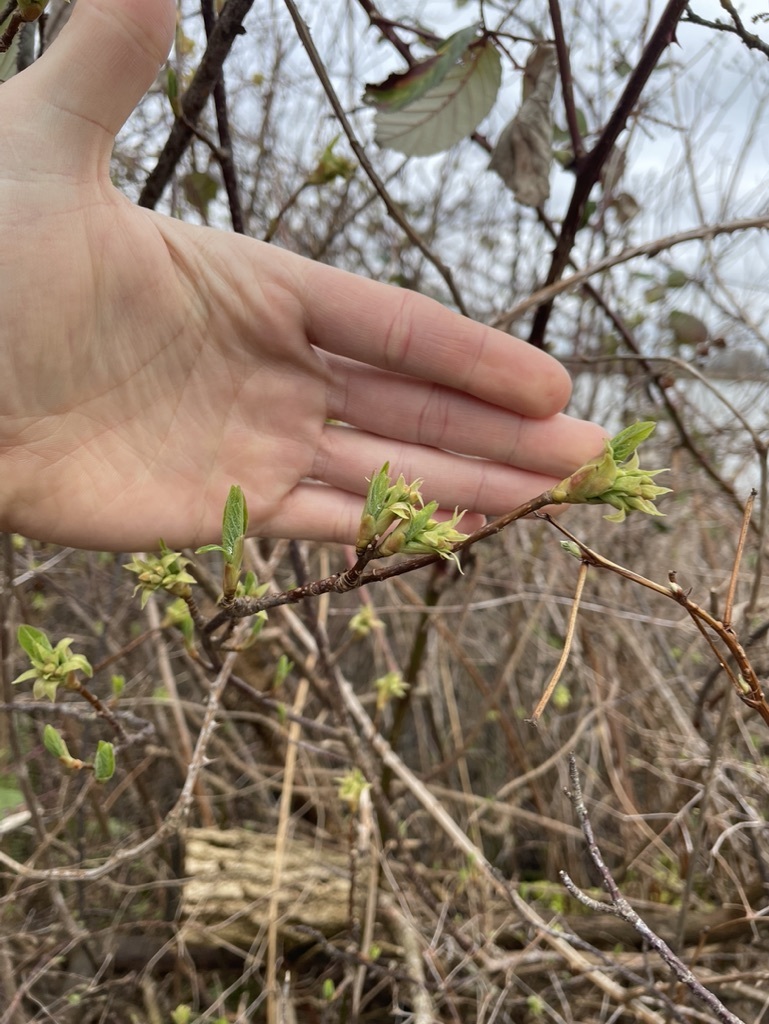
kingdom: Plantae
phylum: Tracheophyta
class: Magnoliopsida
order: Rosales
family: Rosaceae
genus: Oemleria
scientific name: Oemleria cerasiformis
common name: Osoberry
